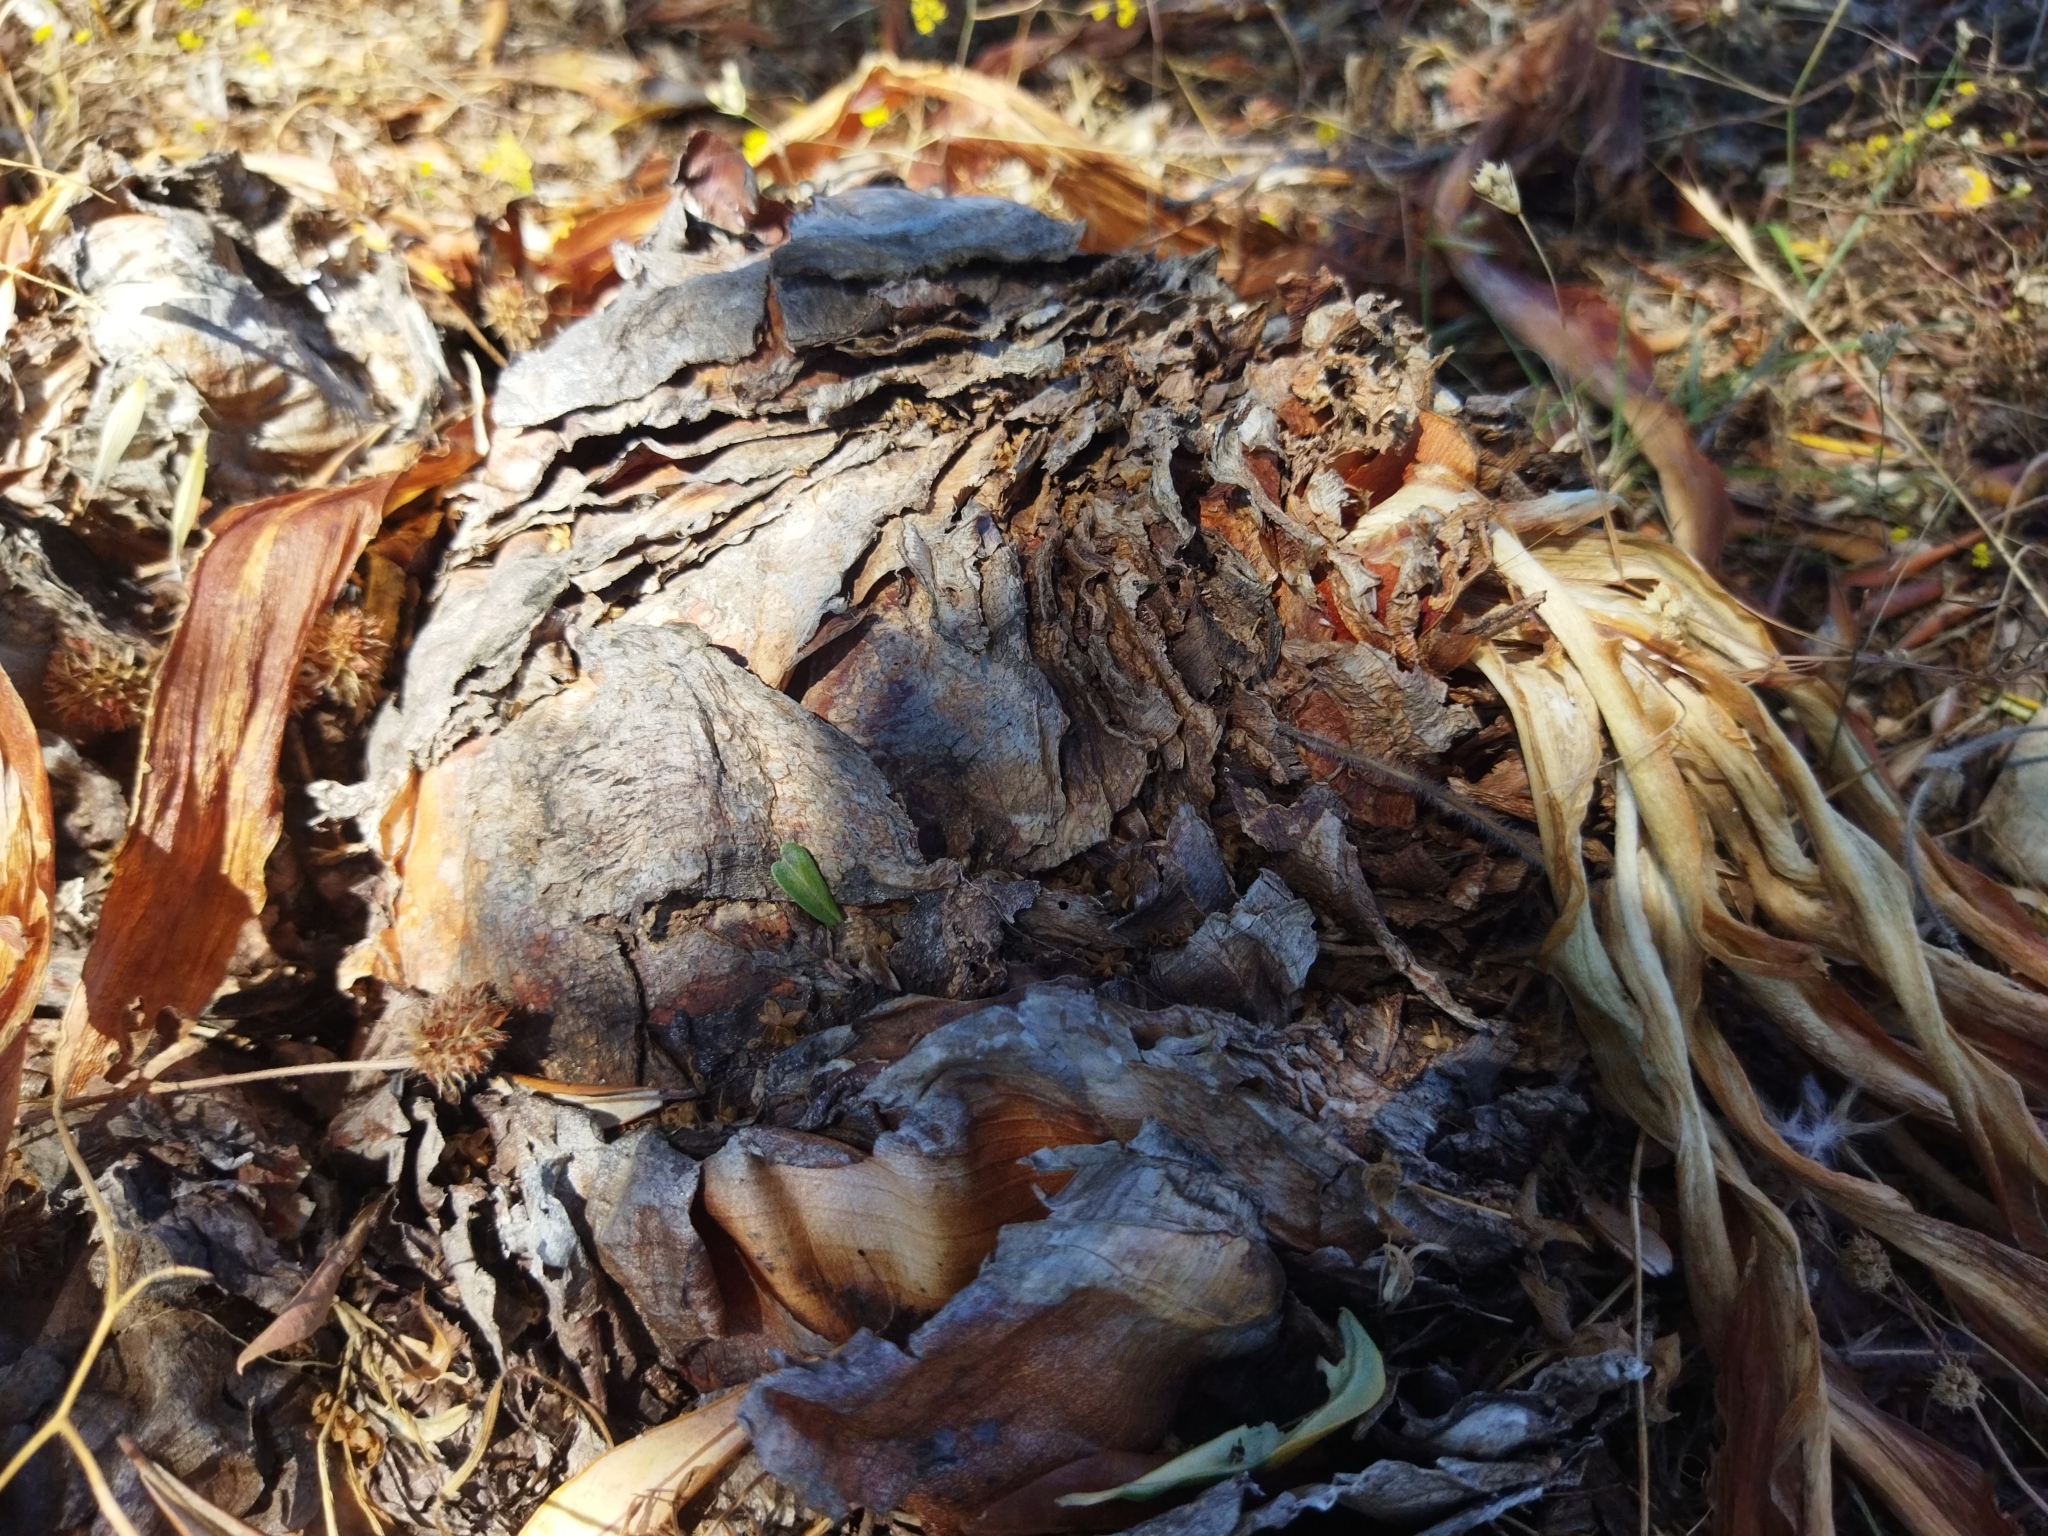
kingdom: Plantae
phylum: Tracheophyta
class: Liliopsida
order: Asparagales
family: Asparagaceae
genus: Drimia
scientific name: Drimia numidica
